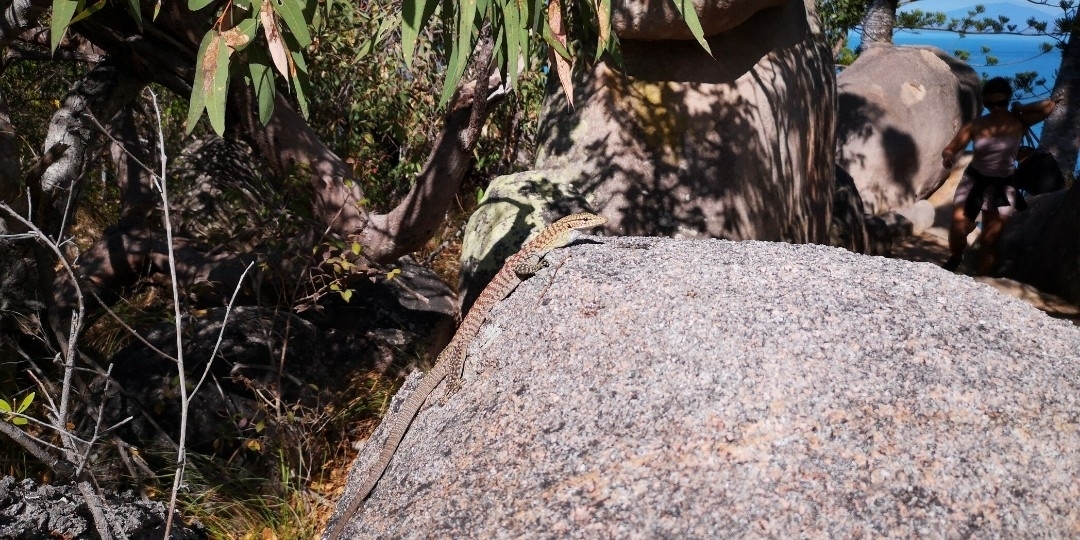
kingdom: Animalia
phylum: Chordata
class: Squamata
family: Varanidae
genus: Varanus
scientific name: Varanus tristis
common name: Arid monitor
